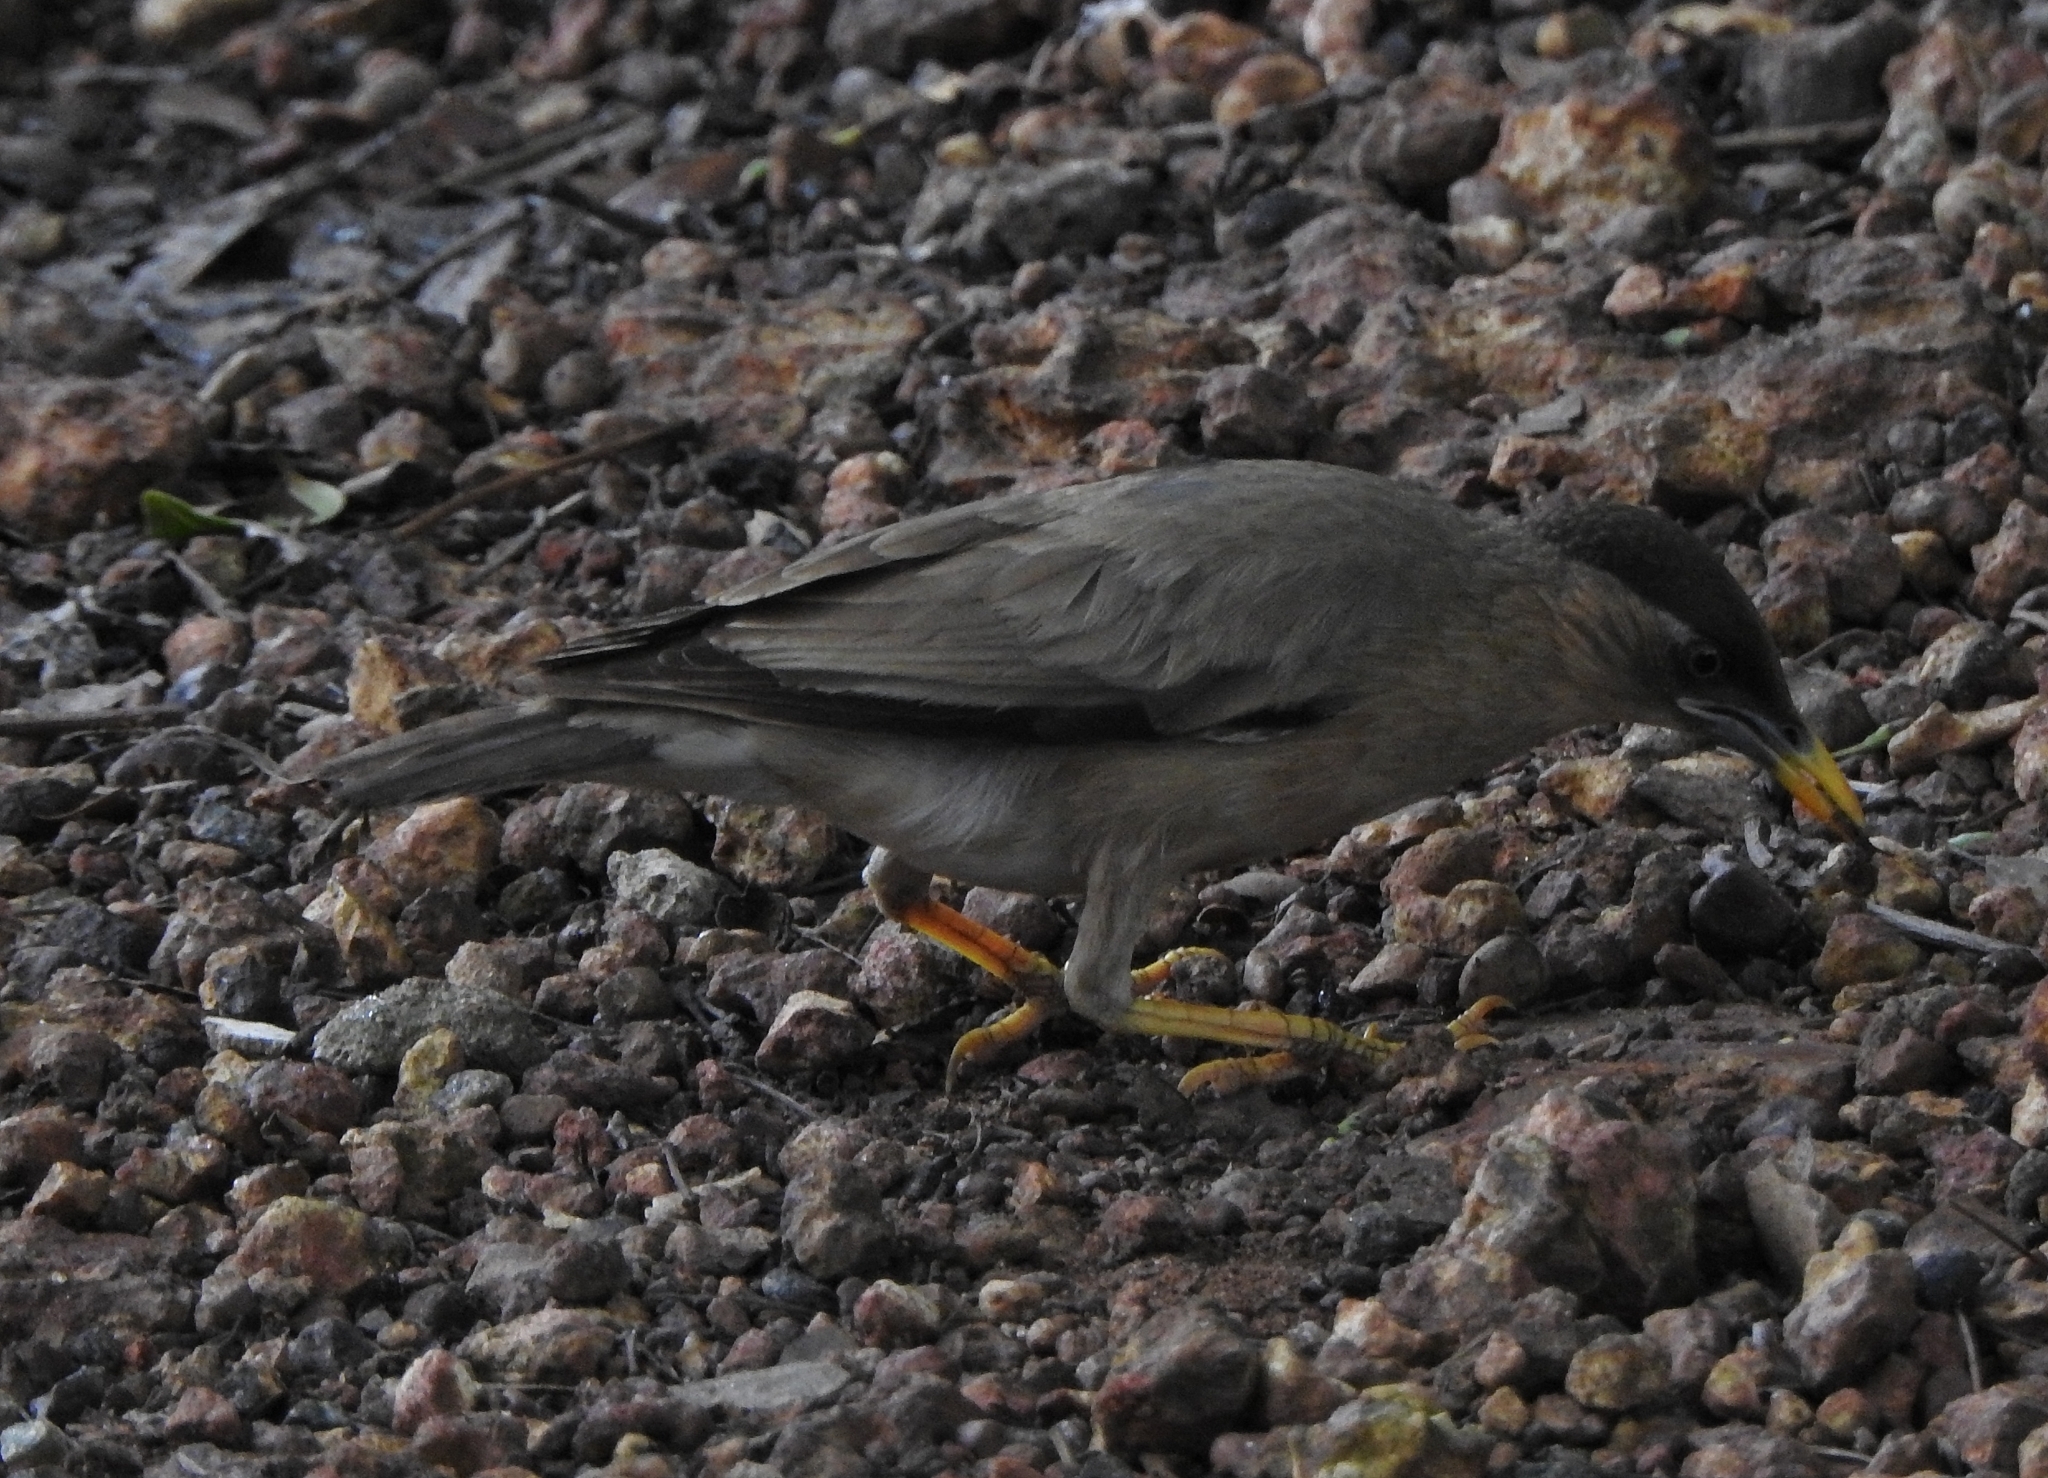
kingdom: Animalia
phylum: Chordata
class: Aves
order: Passeriformes
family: Sturnidae
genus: Sturnia
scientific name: Sturnia pagodarum
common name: Brahminy starling
